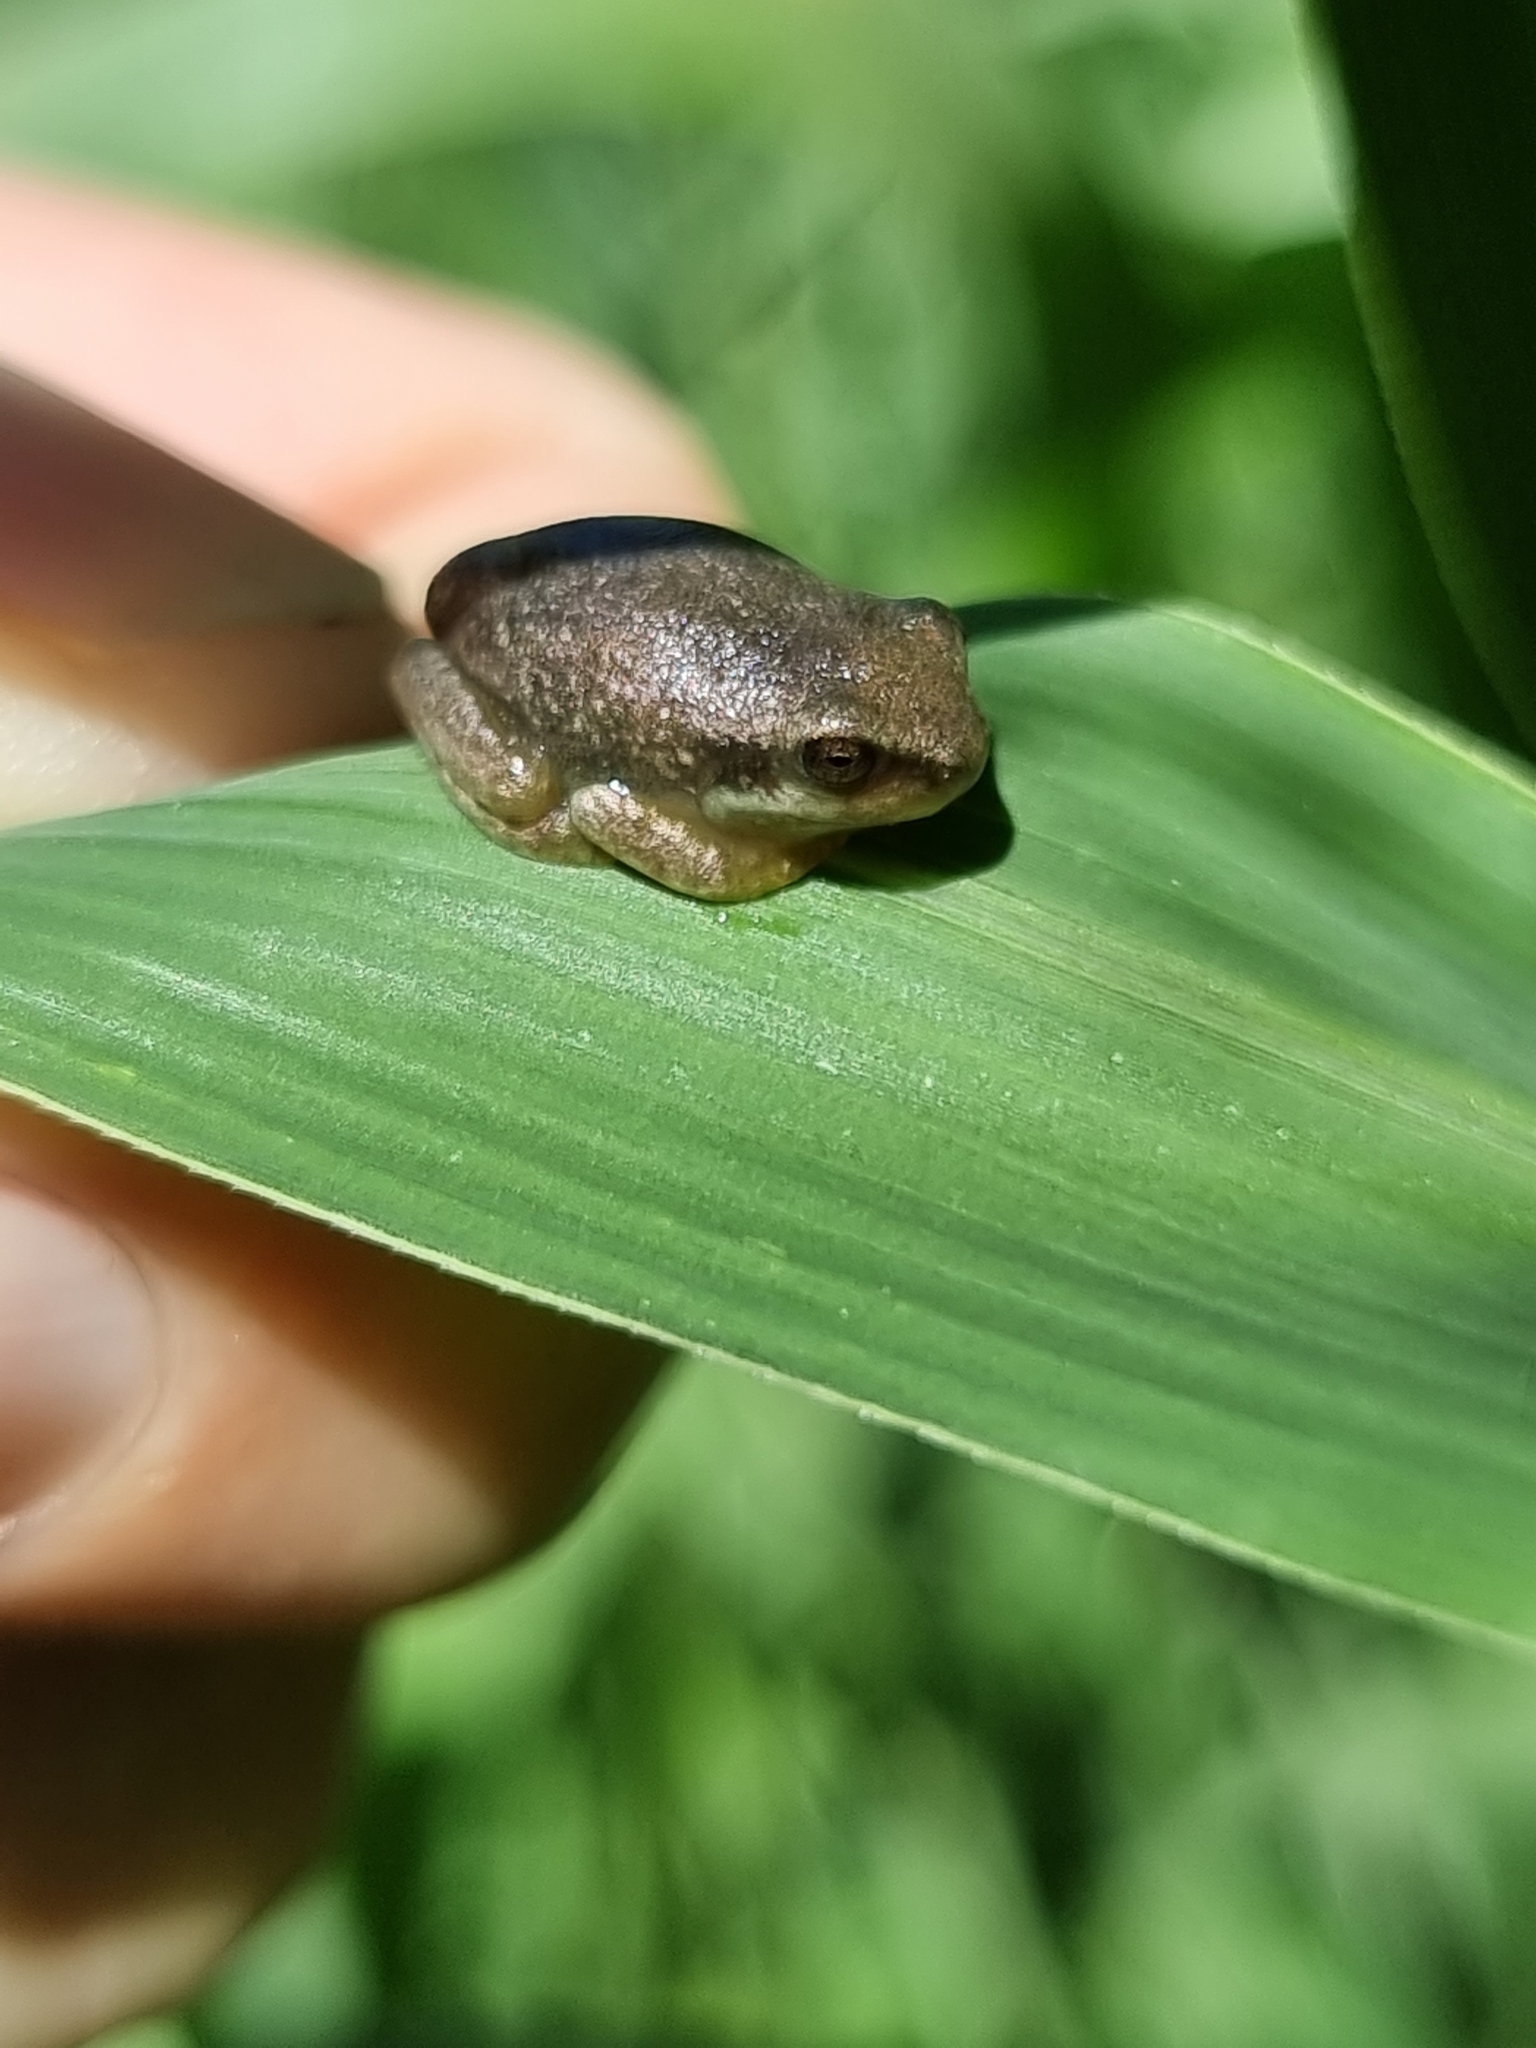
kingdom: Animalia
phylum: Chordata
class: Amphibia
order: Anura
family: Pelodryadidae
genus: Ranoidea
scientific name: Ranoidea gracilenta
